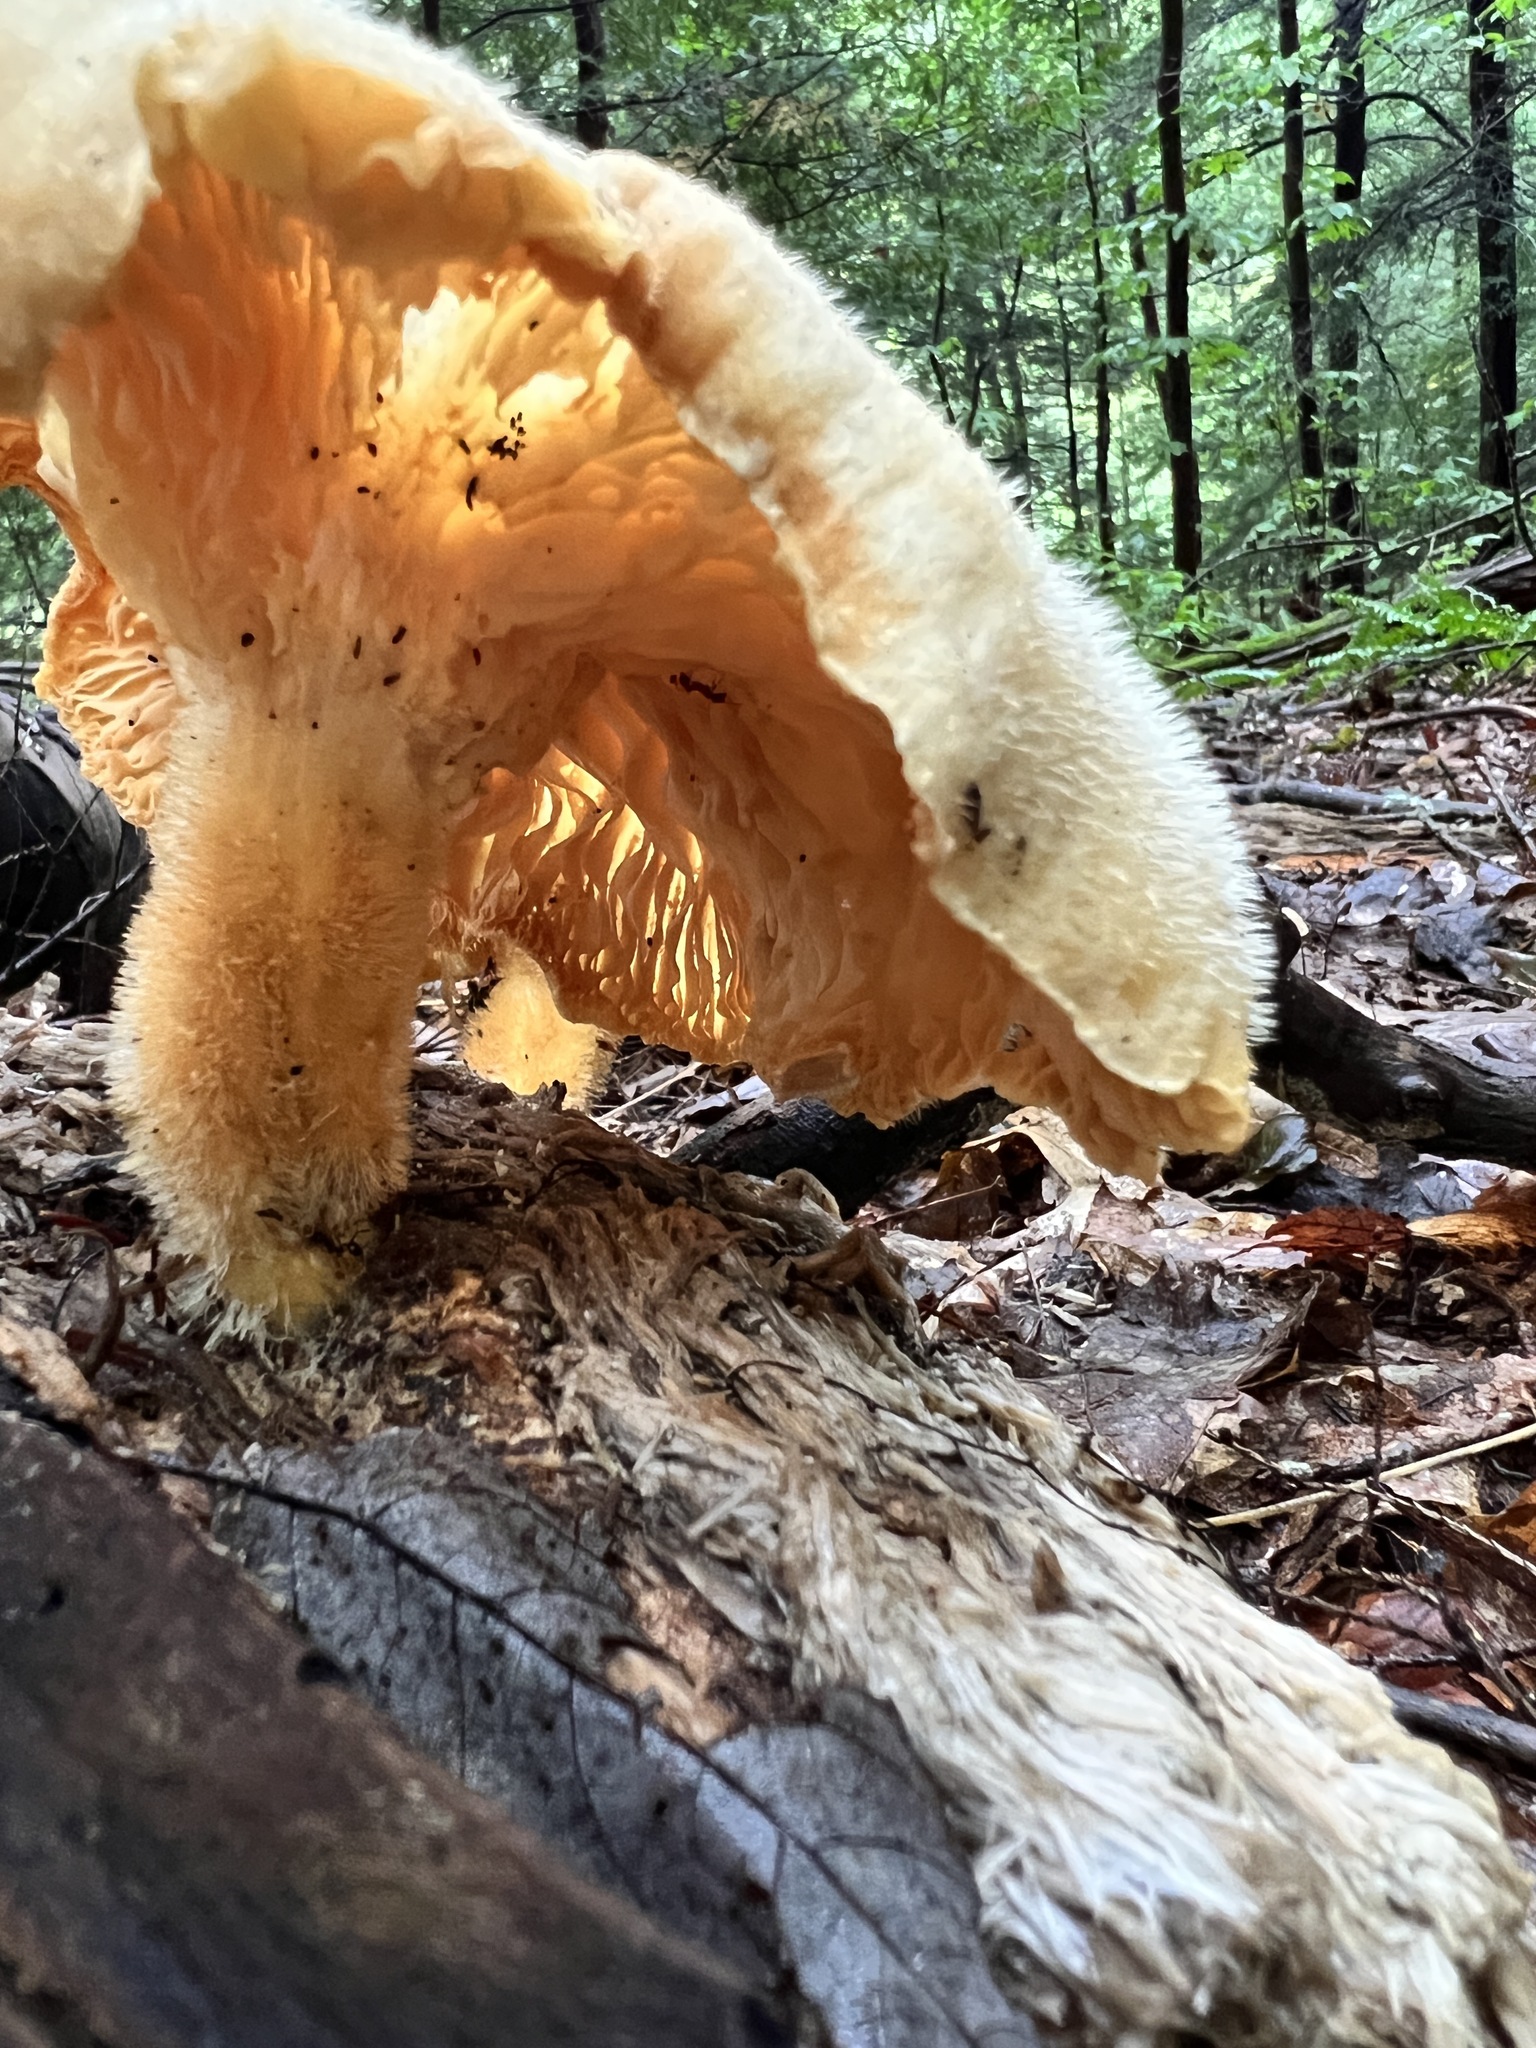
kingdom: Fungi
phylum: Basidiomycota
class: Agaricomycetes
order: Polyporales
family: Polyporaceae
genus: Lentinus
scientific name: Lentinus levis
